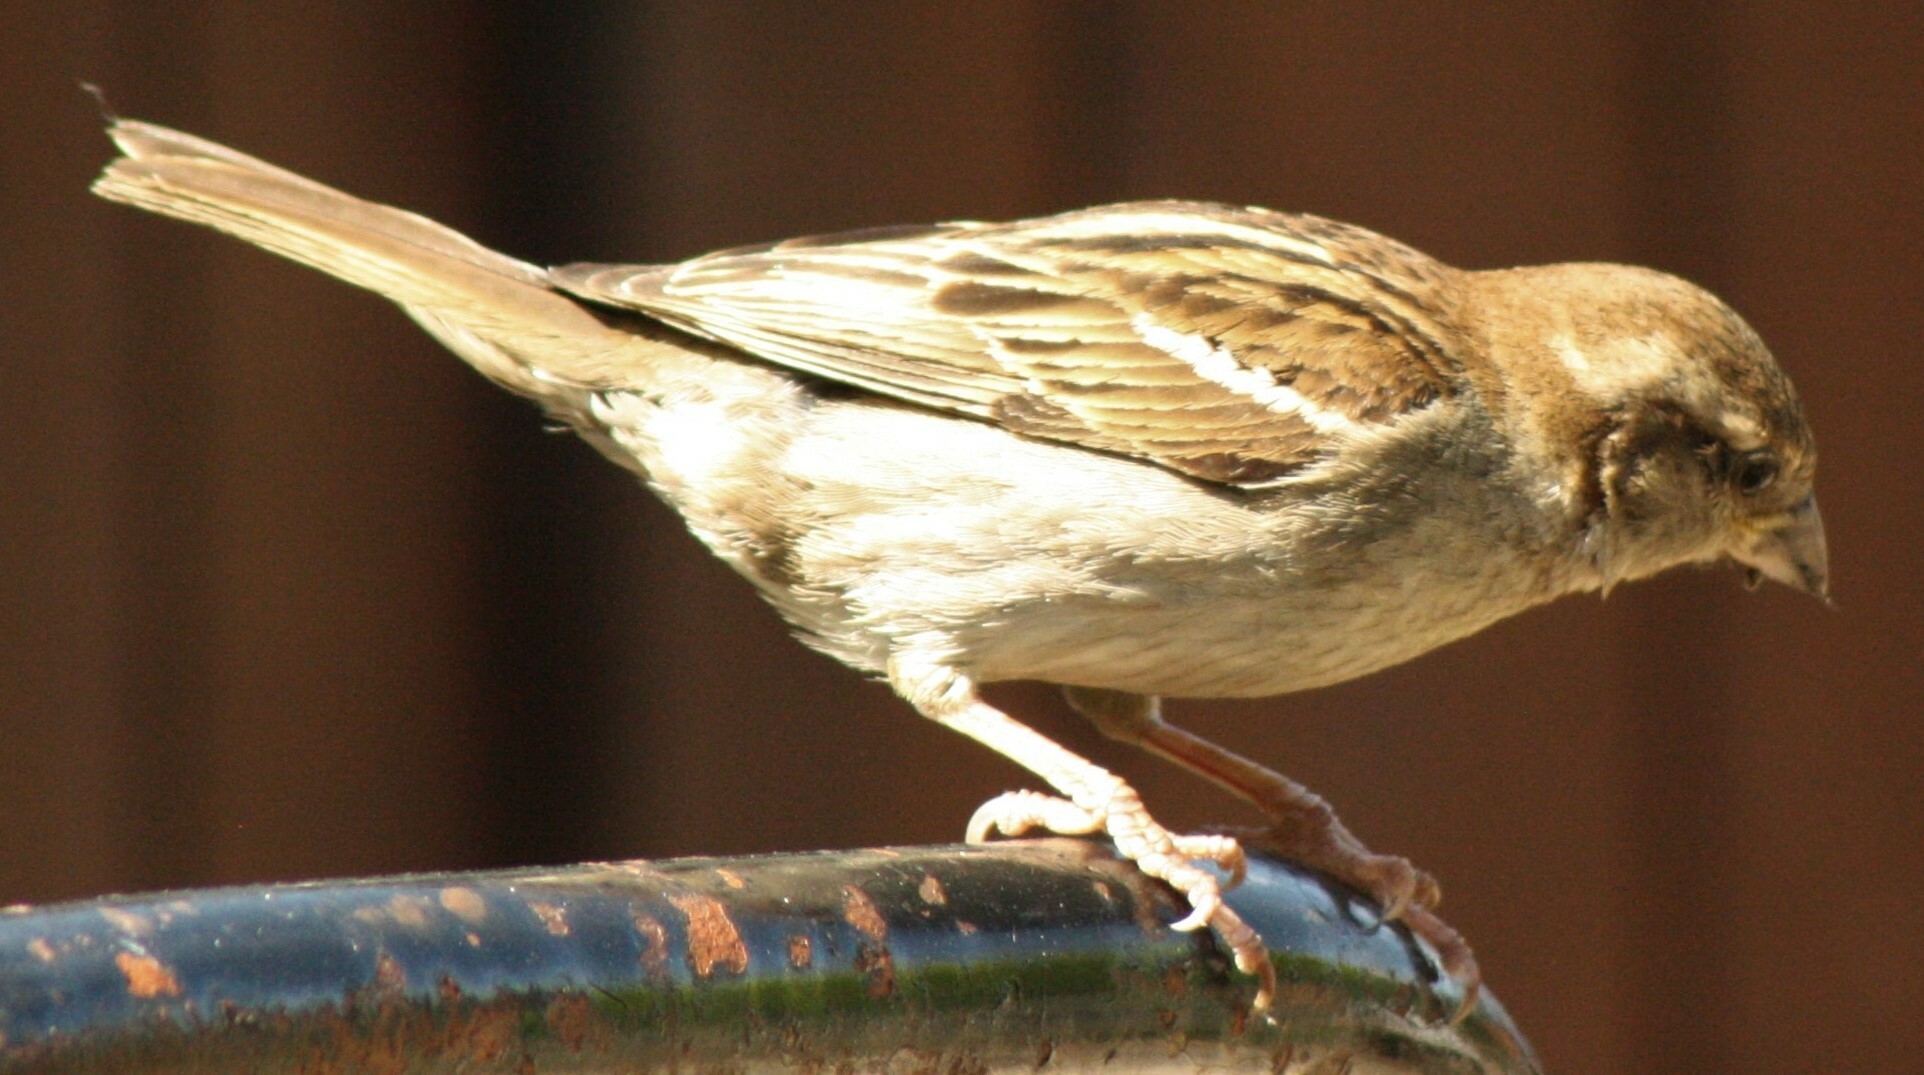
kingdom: Animalia
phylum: Chordata
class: Aves
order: Passeriformes
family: Passeridae
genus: Passer
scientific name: Passer domesticus
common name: House sparrow
